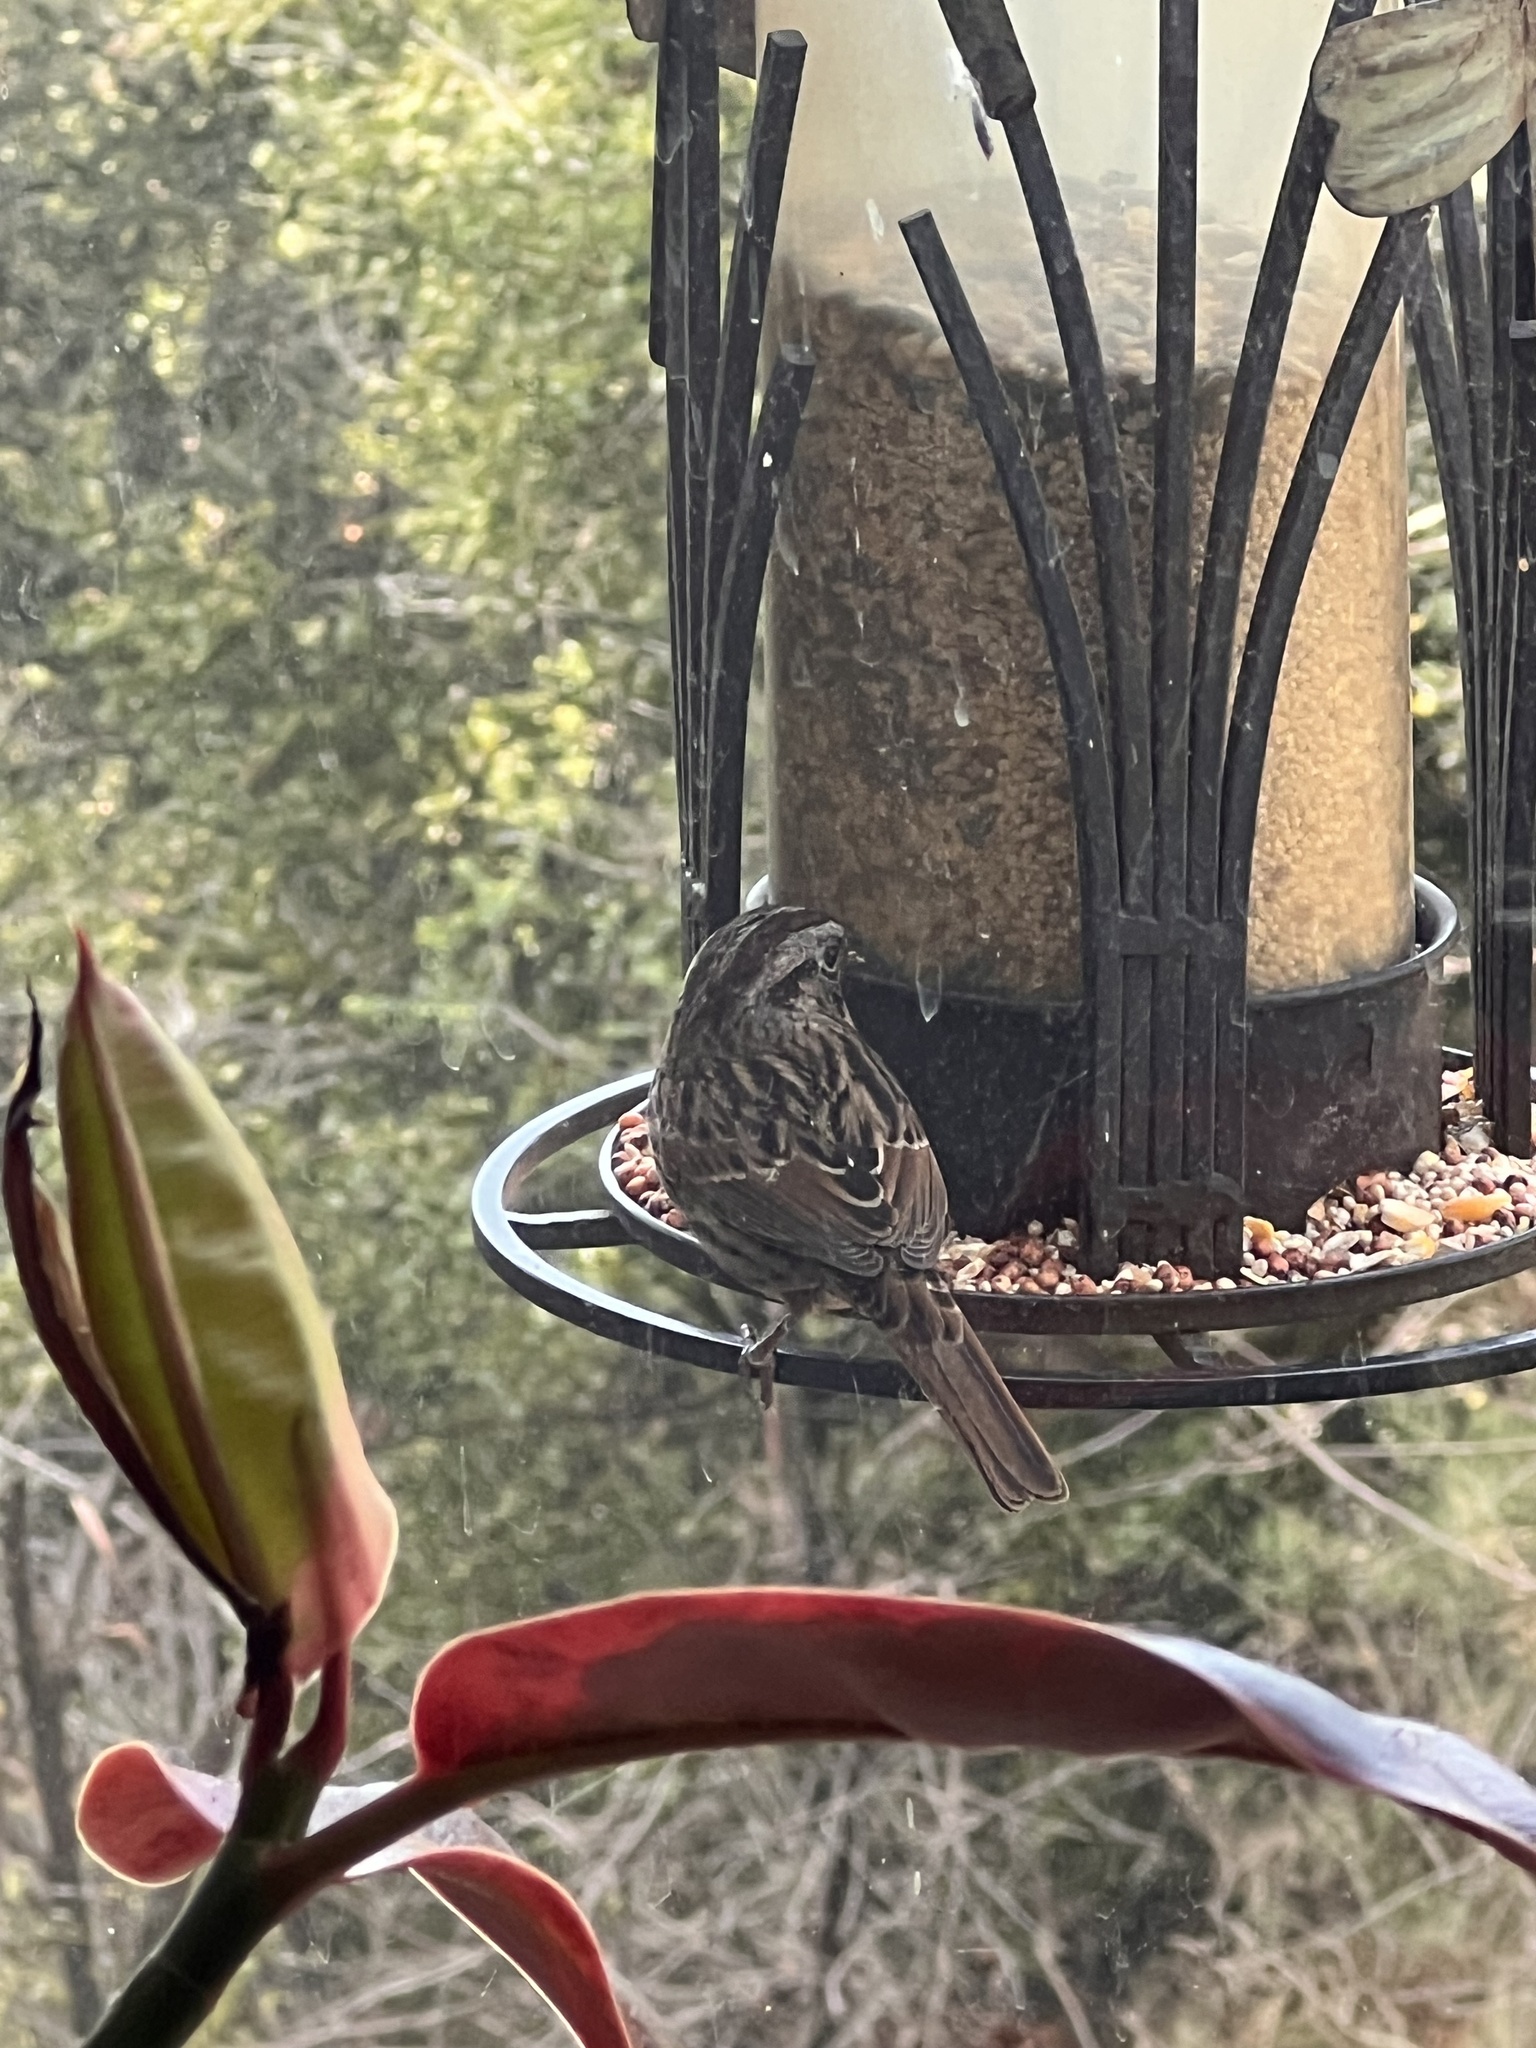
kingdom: Animalia
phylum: Chordata
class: Aves
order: Passeriformes
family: Passerellidae
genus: Melospiza
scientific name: Melospiza melodia
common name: Song sparrow
